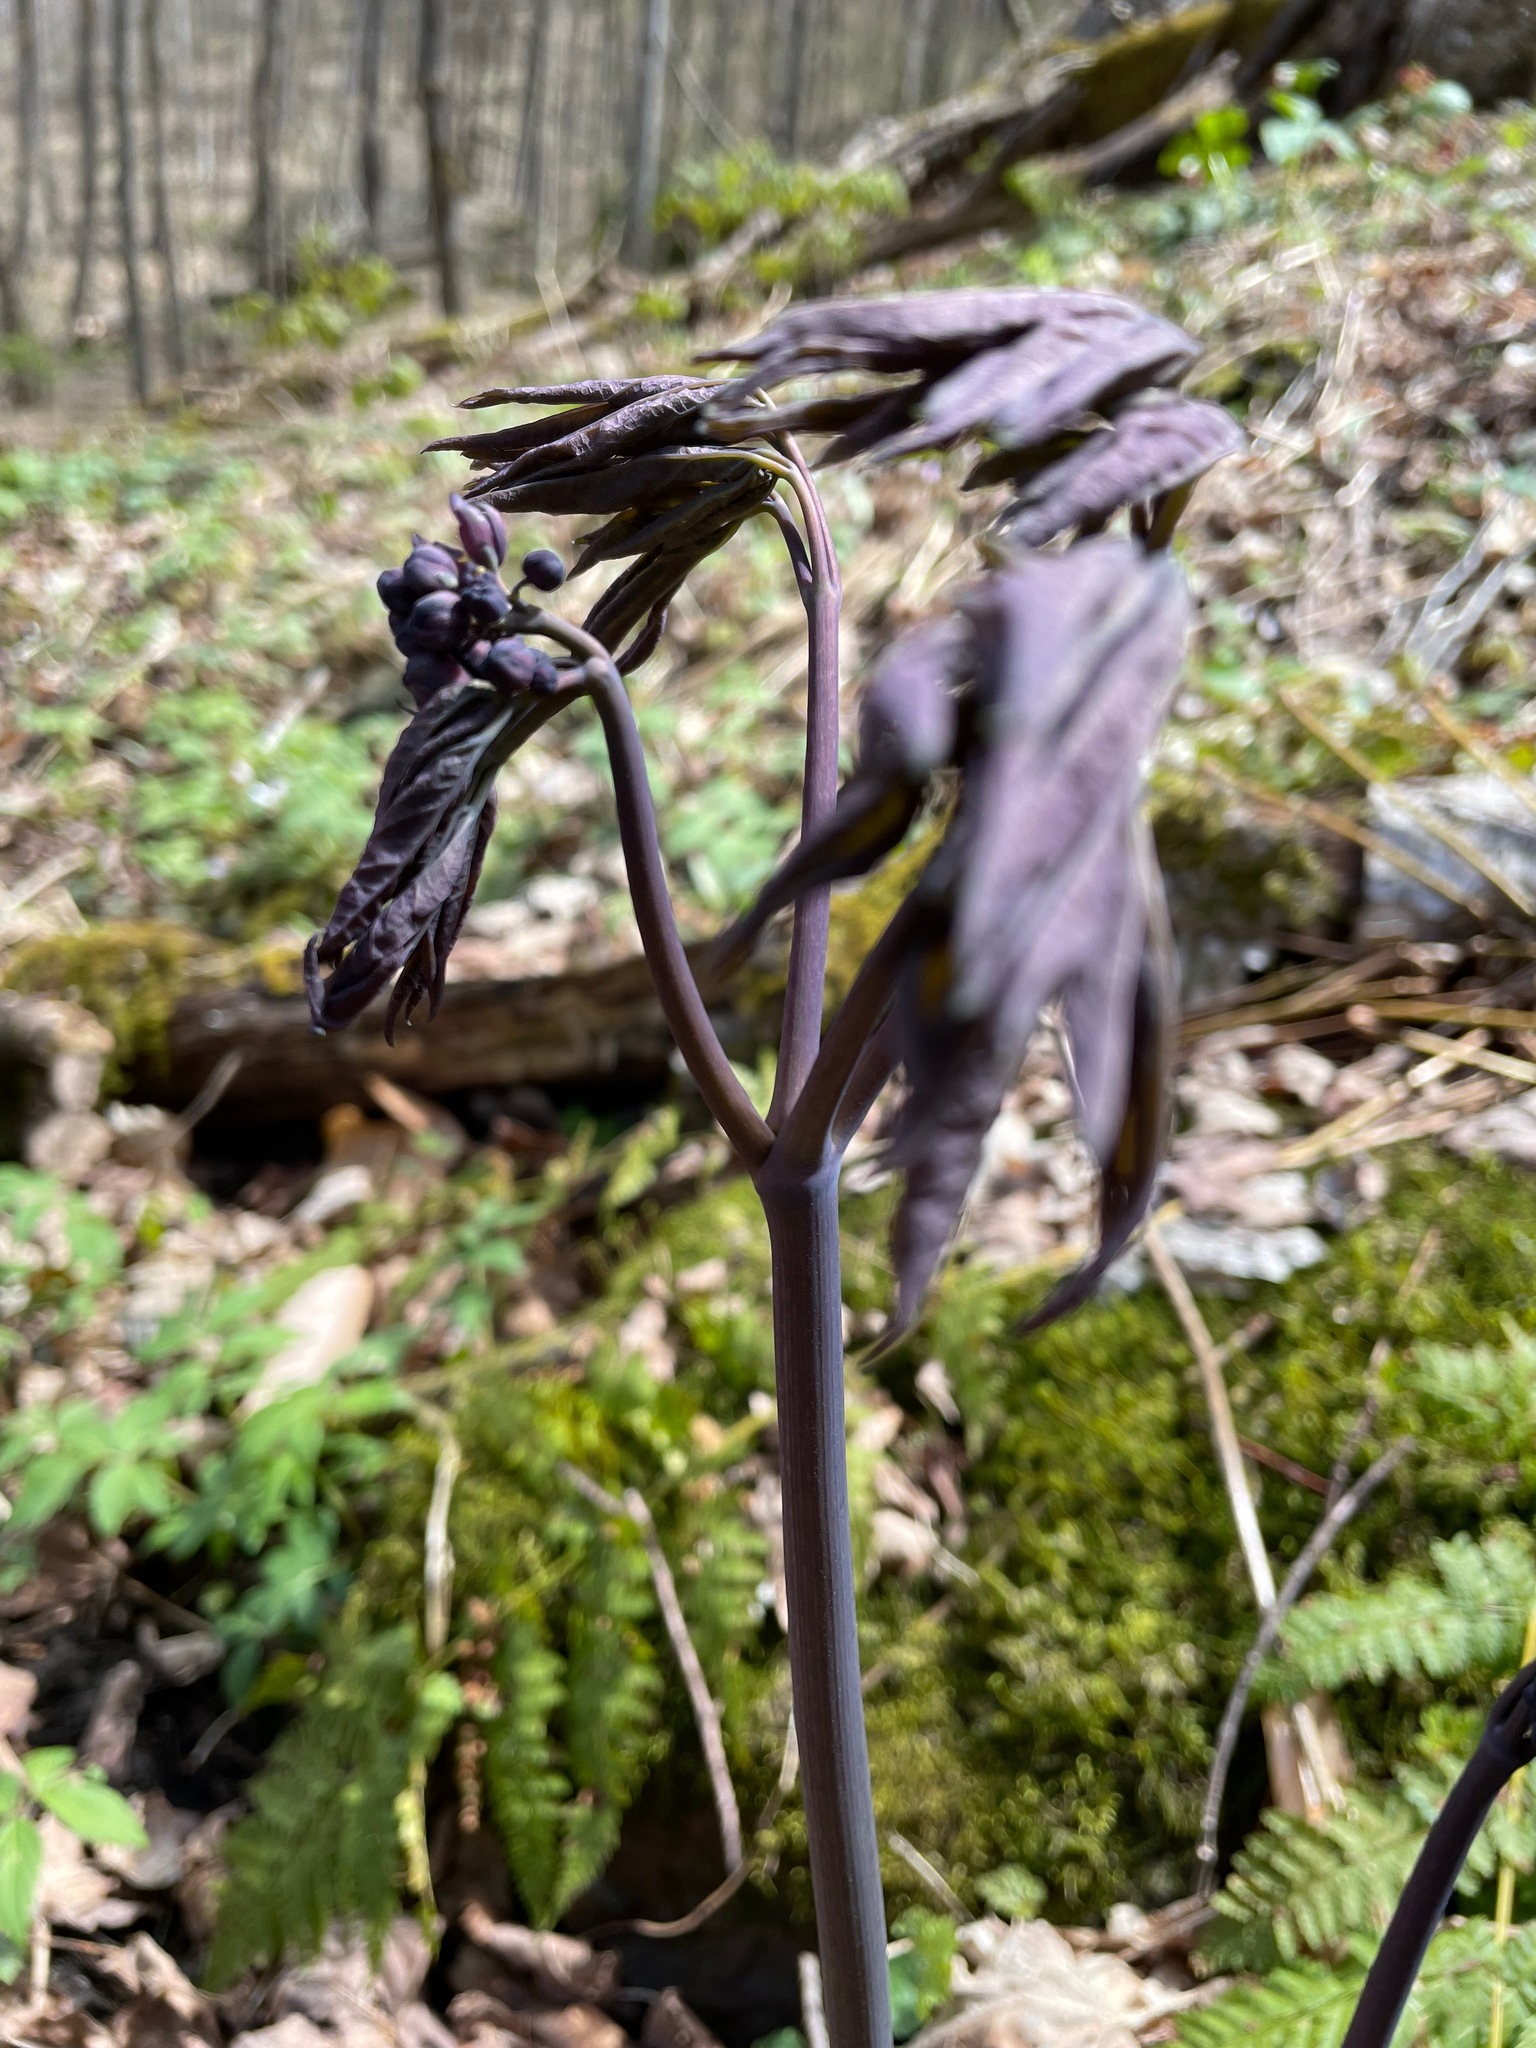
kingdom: Plantae
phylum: Tracheophyta
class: Magnoliopsida
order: Ranunculales
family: Berberidaceae
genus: Caulophyllum
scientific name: Caulophyllum giganteum
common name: Blue cohosh
